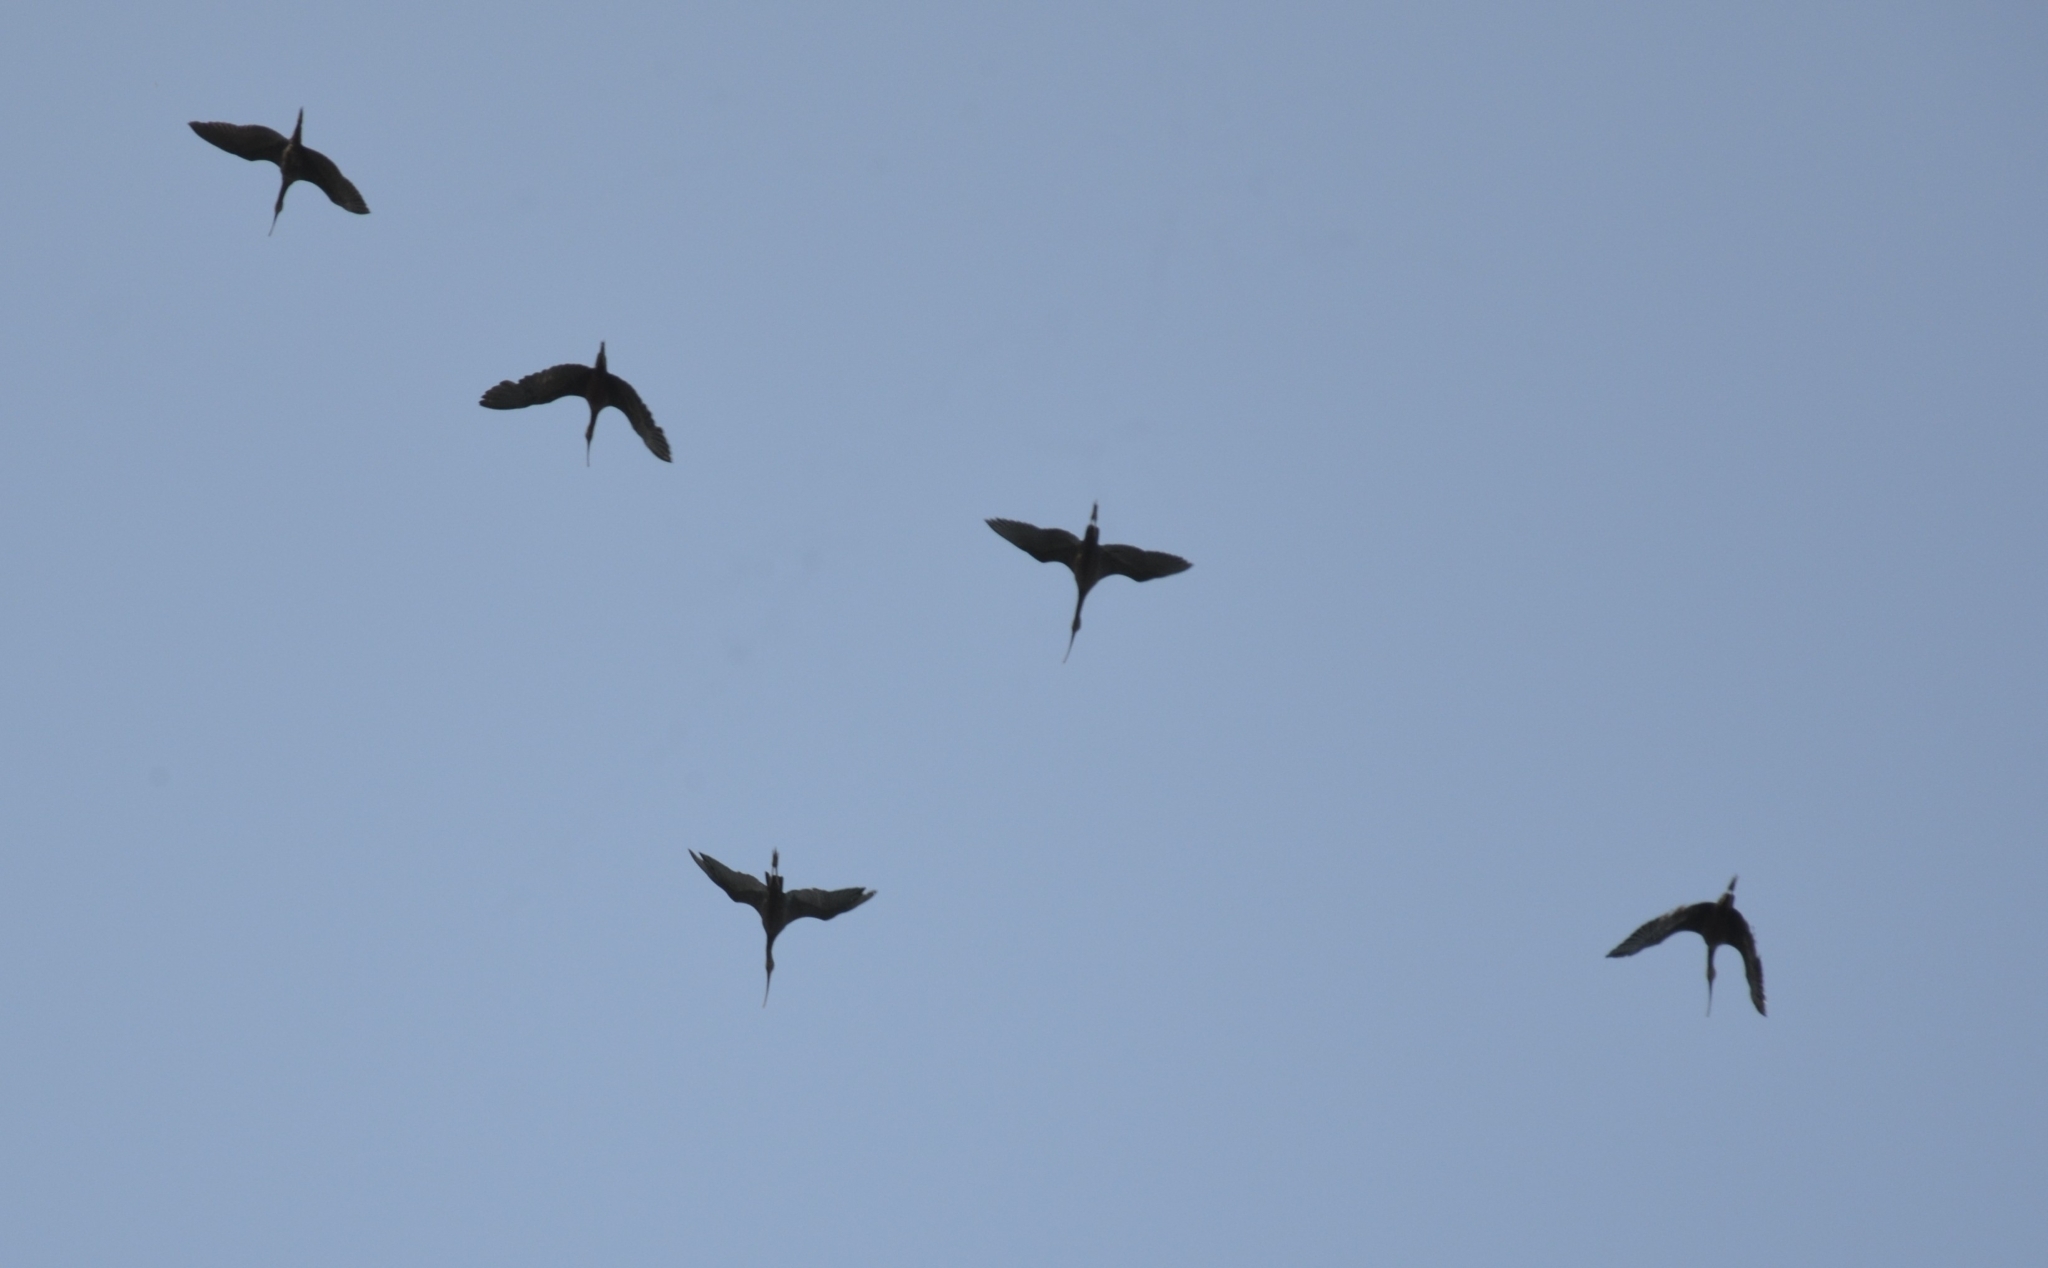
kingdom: Animalia
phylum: Chordata
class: Aves
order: Pelecaniformes
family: Threskiornithidae
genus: Plegadis
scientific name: Plegadis falcinellus
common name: Glossy ibis
